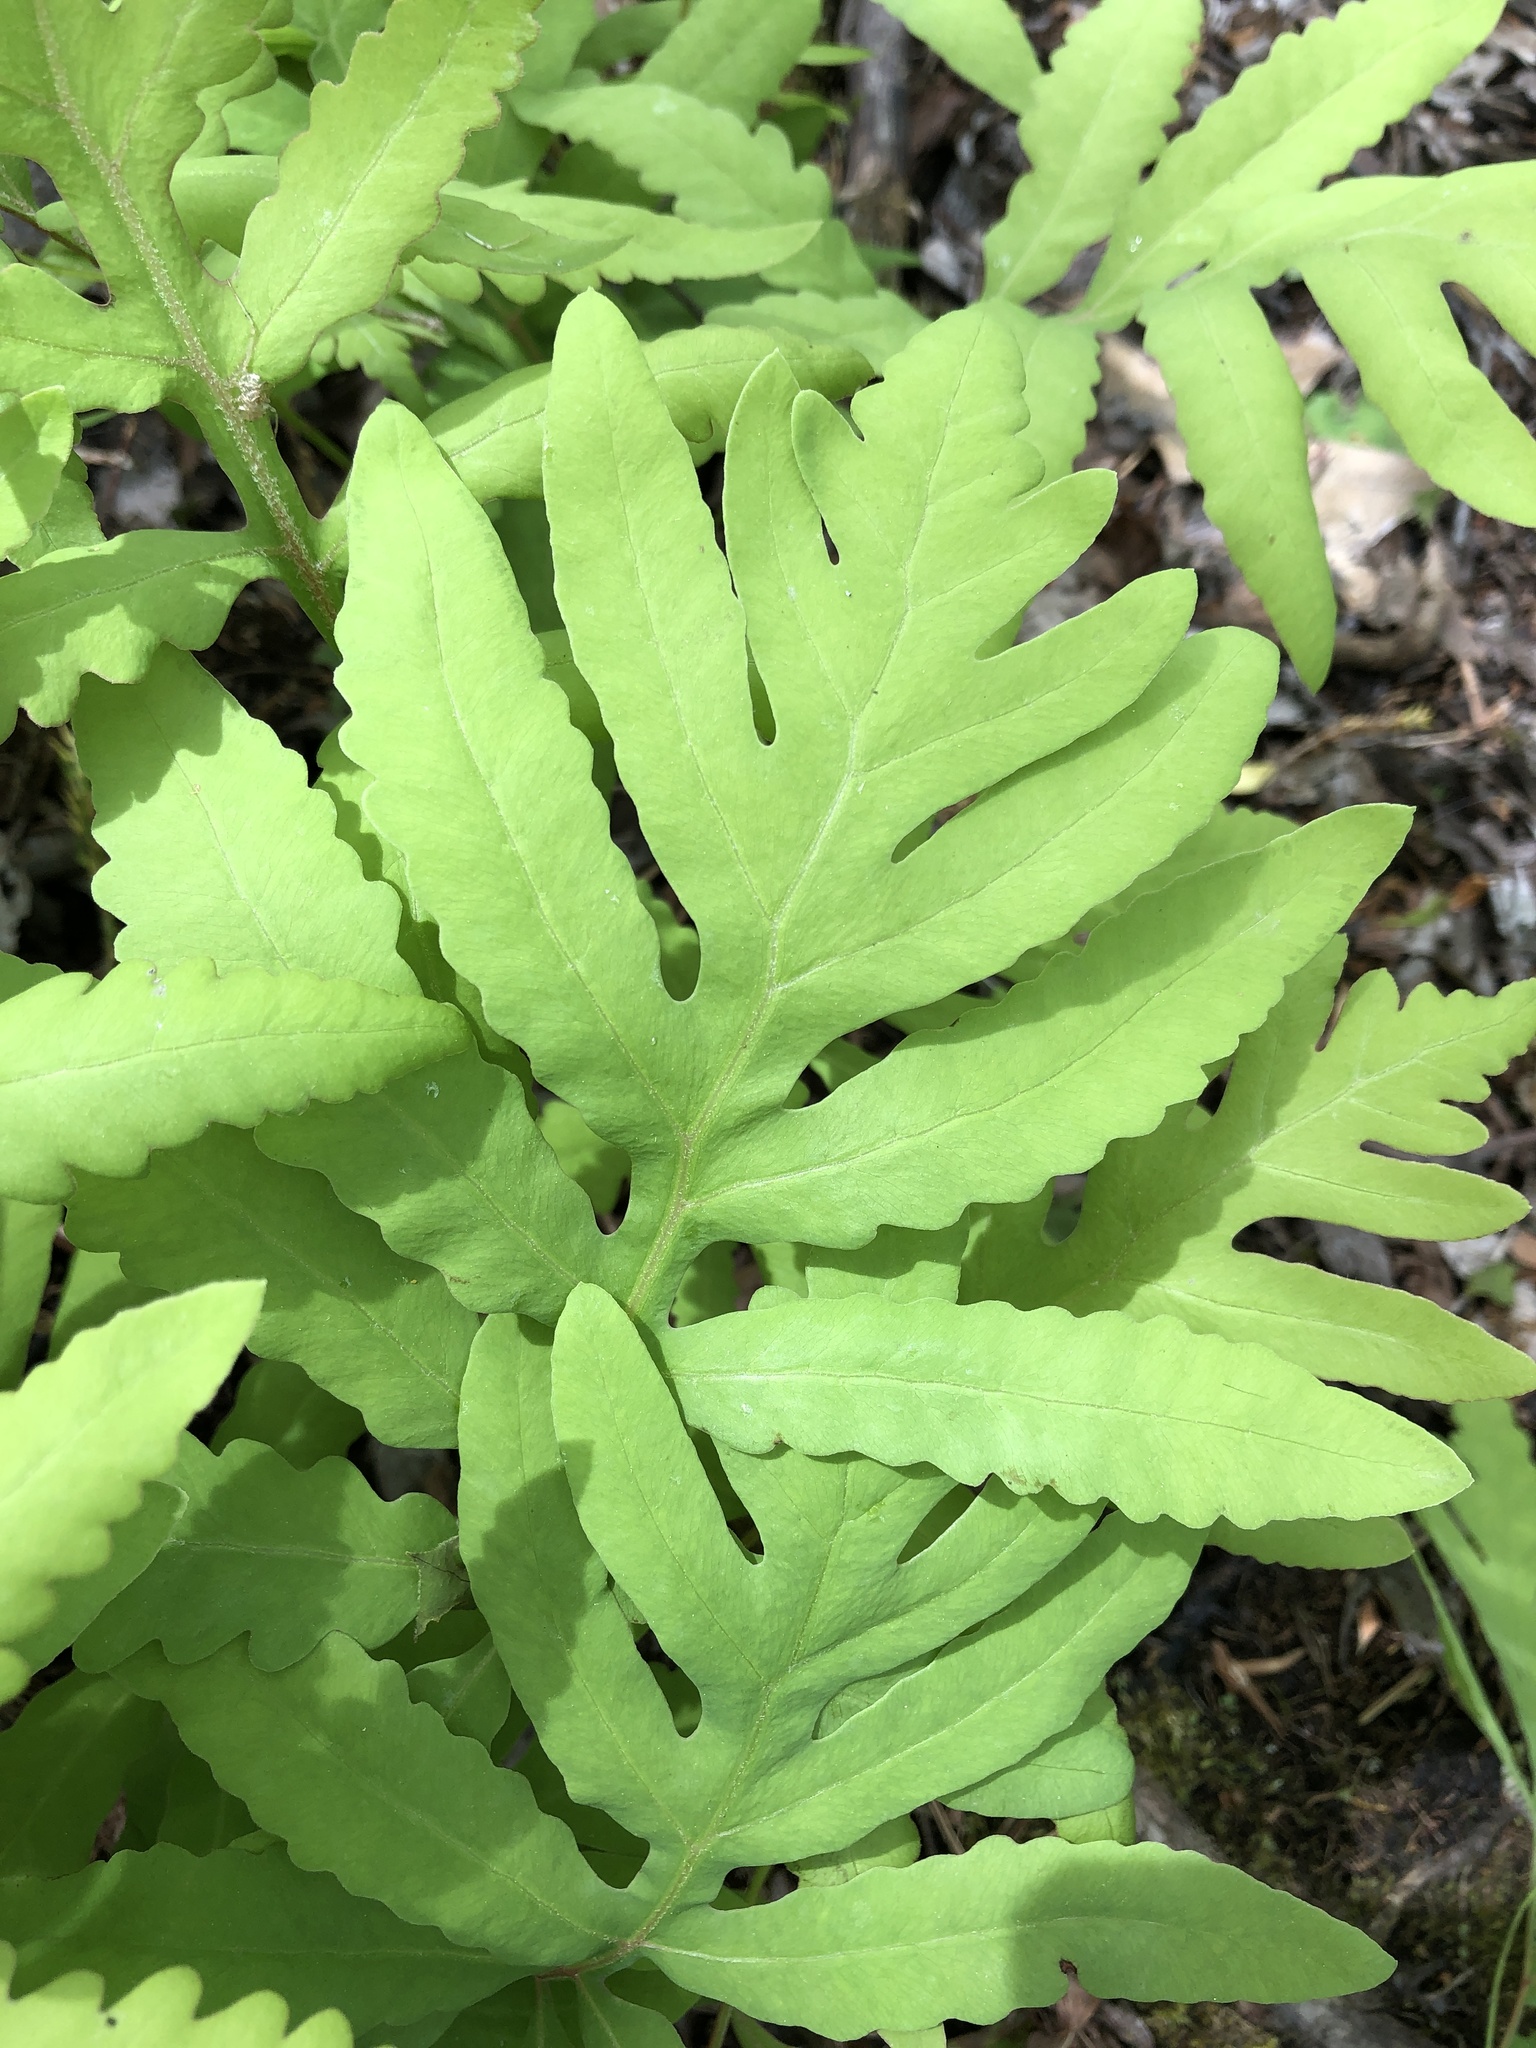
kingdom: Plantae
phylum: Tracheophyta
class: Polypodiopsida
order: Polypodiales
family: Onocleaceae
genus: Onoclea
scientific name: Onoclea sensibilis
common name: Sensitive fern
